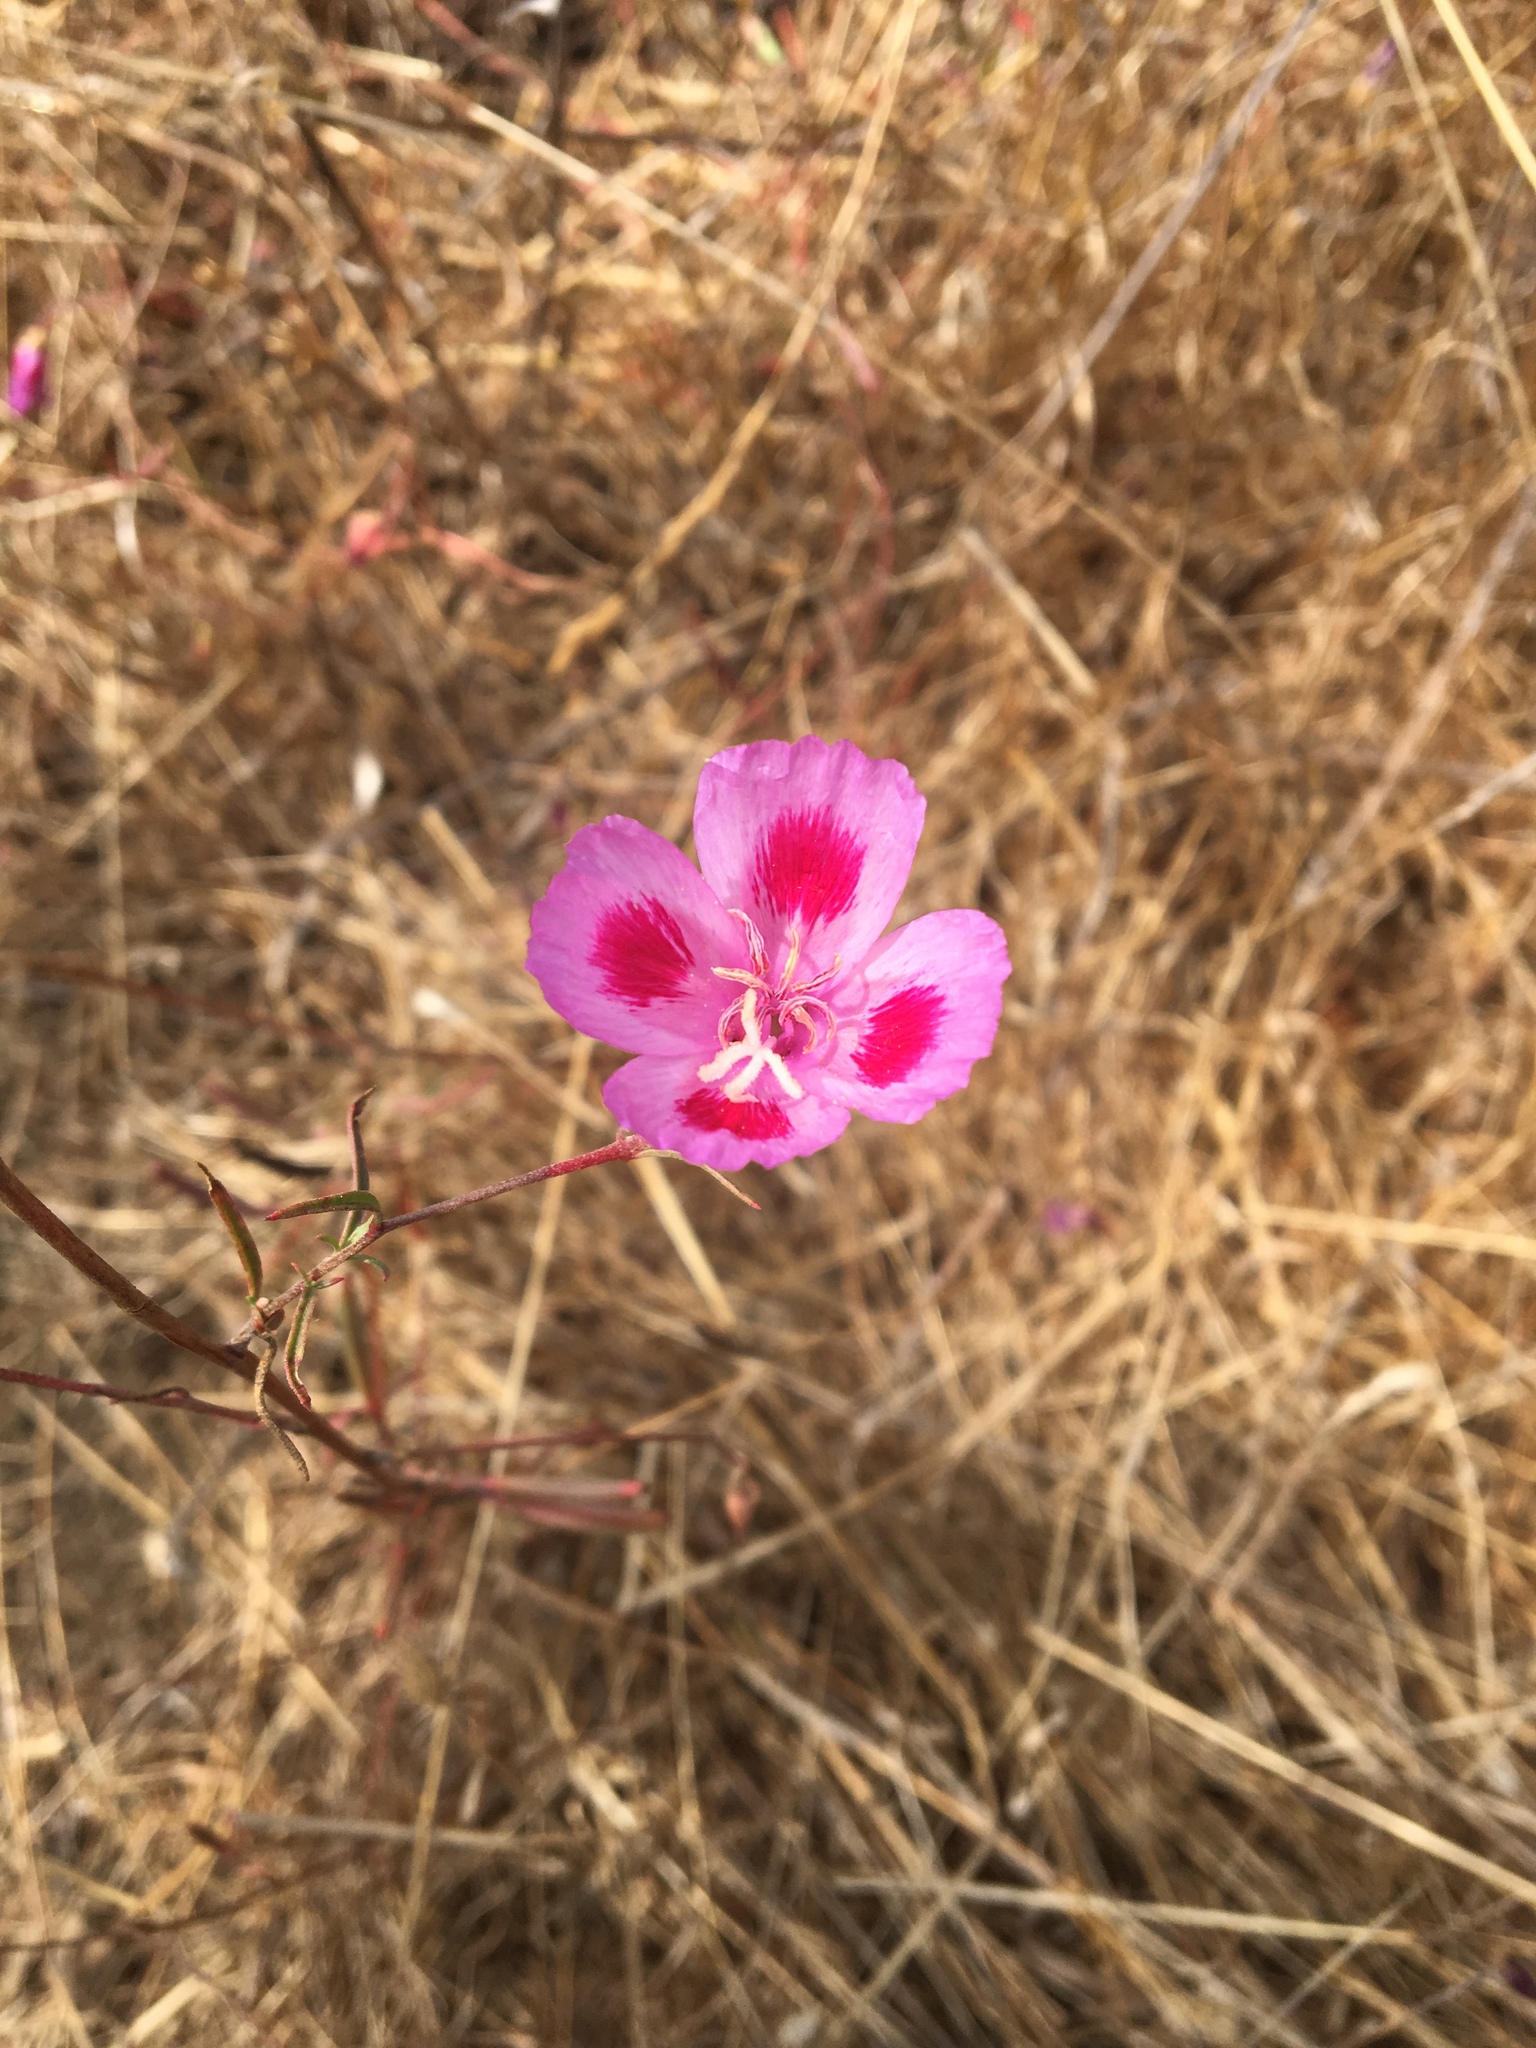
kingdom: Plantae
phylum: Tracheophyta
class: Magnoliopsida
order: Myrtales
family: Onagraceae
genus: Clarkia
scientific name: Clarkia amoena
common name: Godetia
